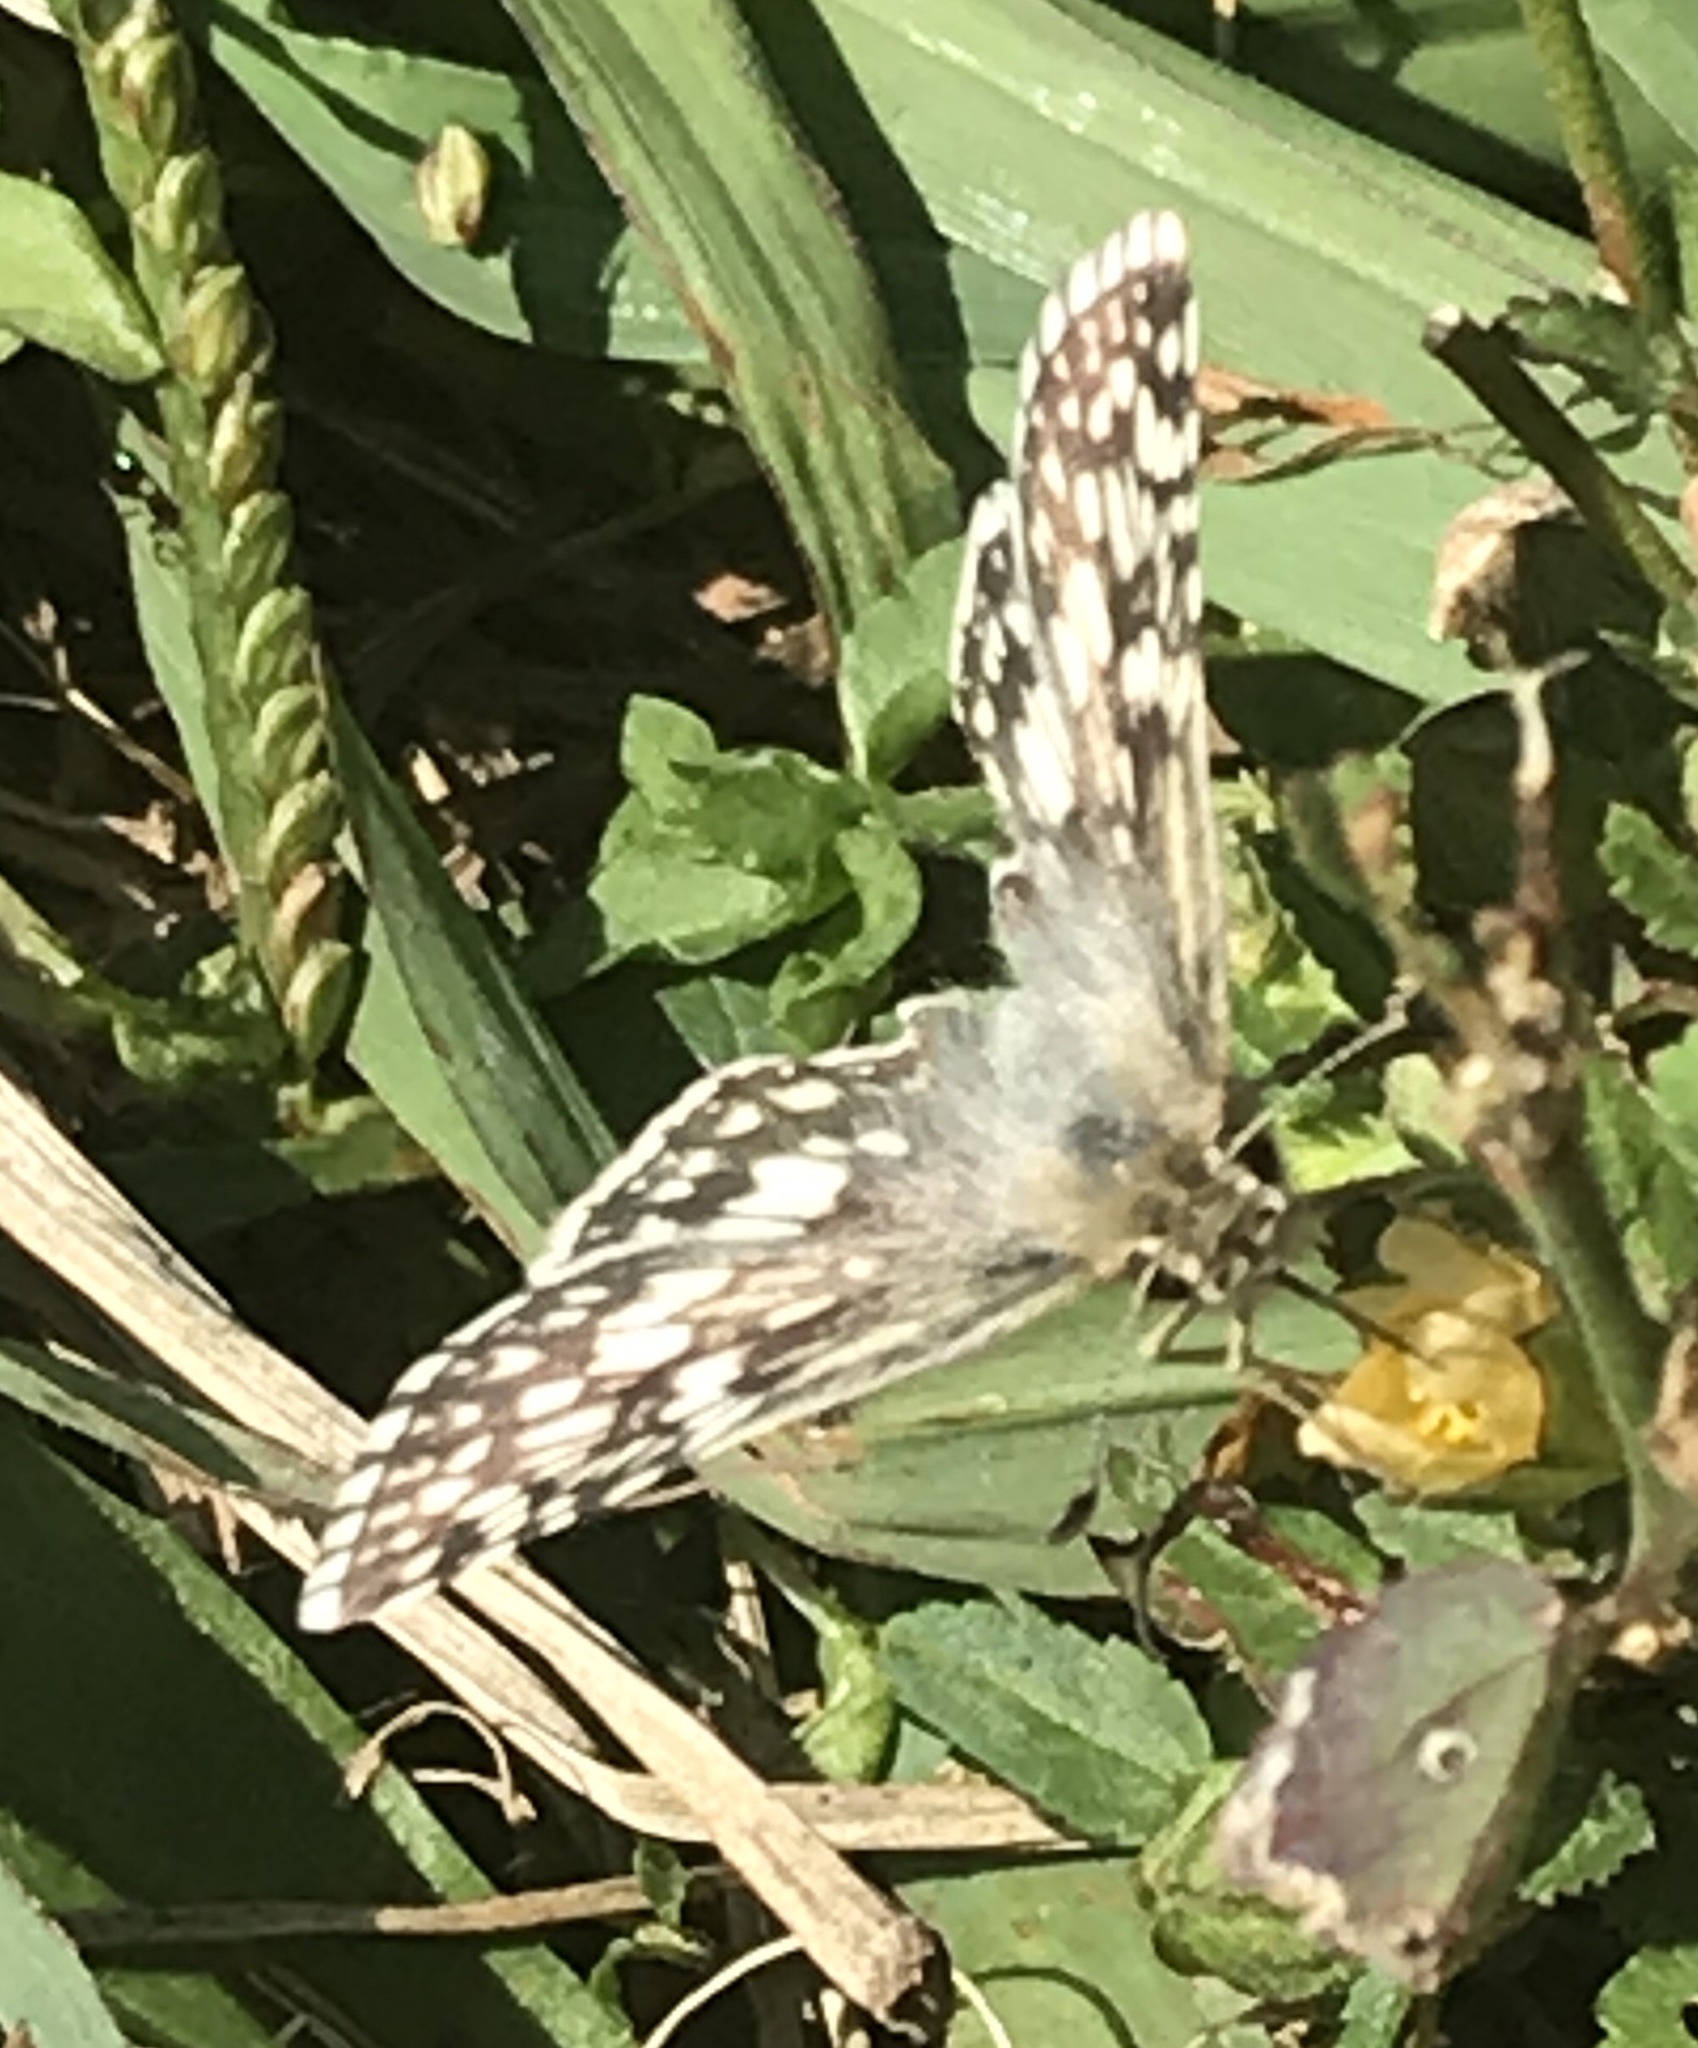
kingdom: Animalia
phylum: Arthropoda
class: Insecta
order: Lepidoptera
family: Hesperiidae
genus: Burnsius
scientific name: Burnsius communis
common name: Common checkered-skipper
